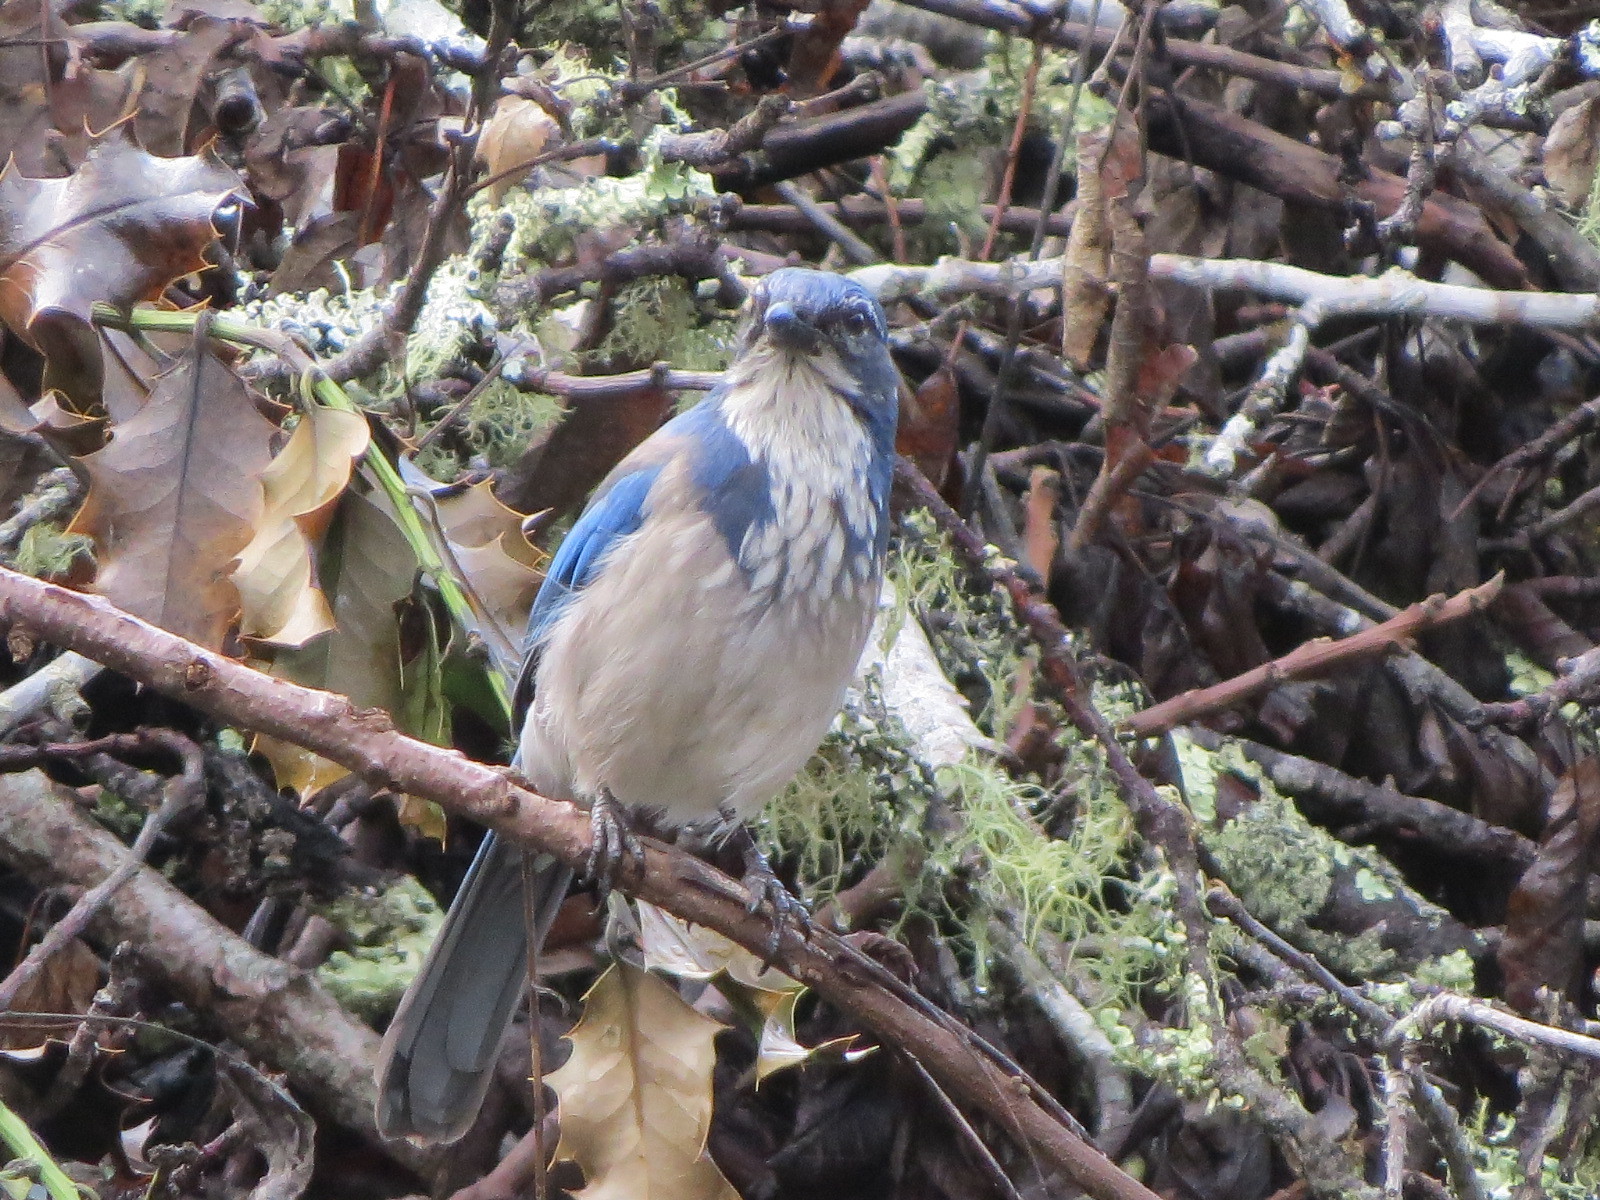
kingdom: Animalia
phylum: Chordata
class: Aves
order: Passeriformes
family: Corvidae
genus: Aphelocoma
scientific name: Aphelocoma californica
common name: California scrub-jay
